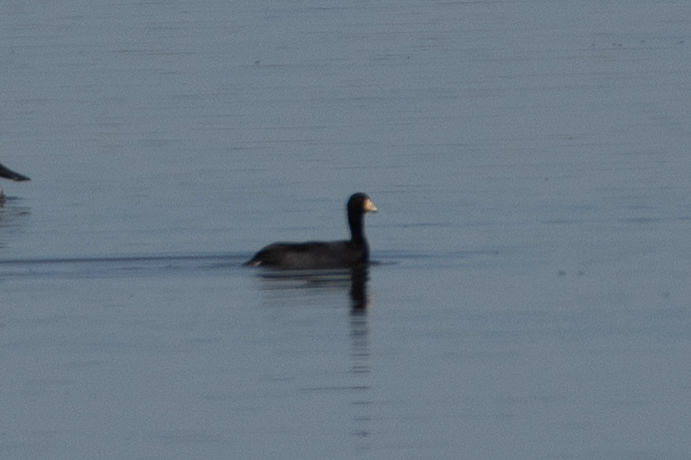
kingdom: Animalia
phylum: Chordata
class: Aves
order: Gruiformes
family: Rallidae
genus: Fulica
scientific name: Fulica americana
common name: American coot
